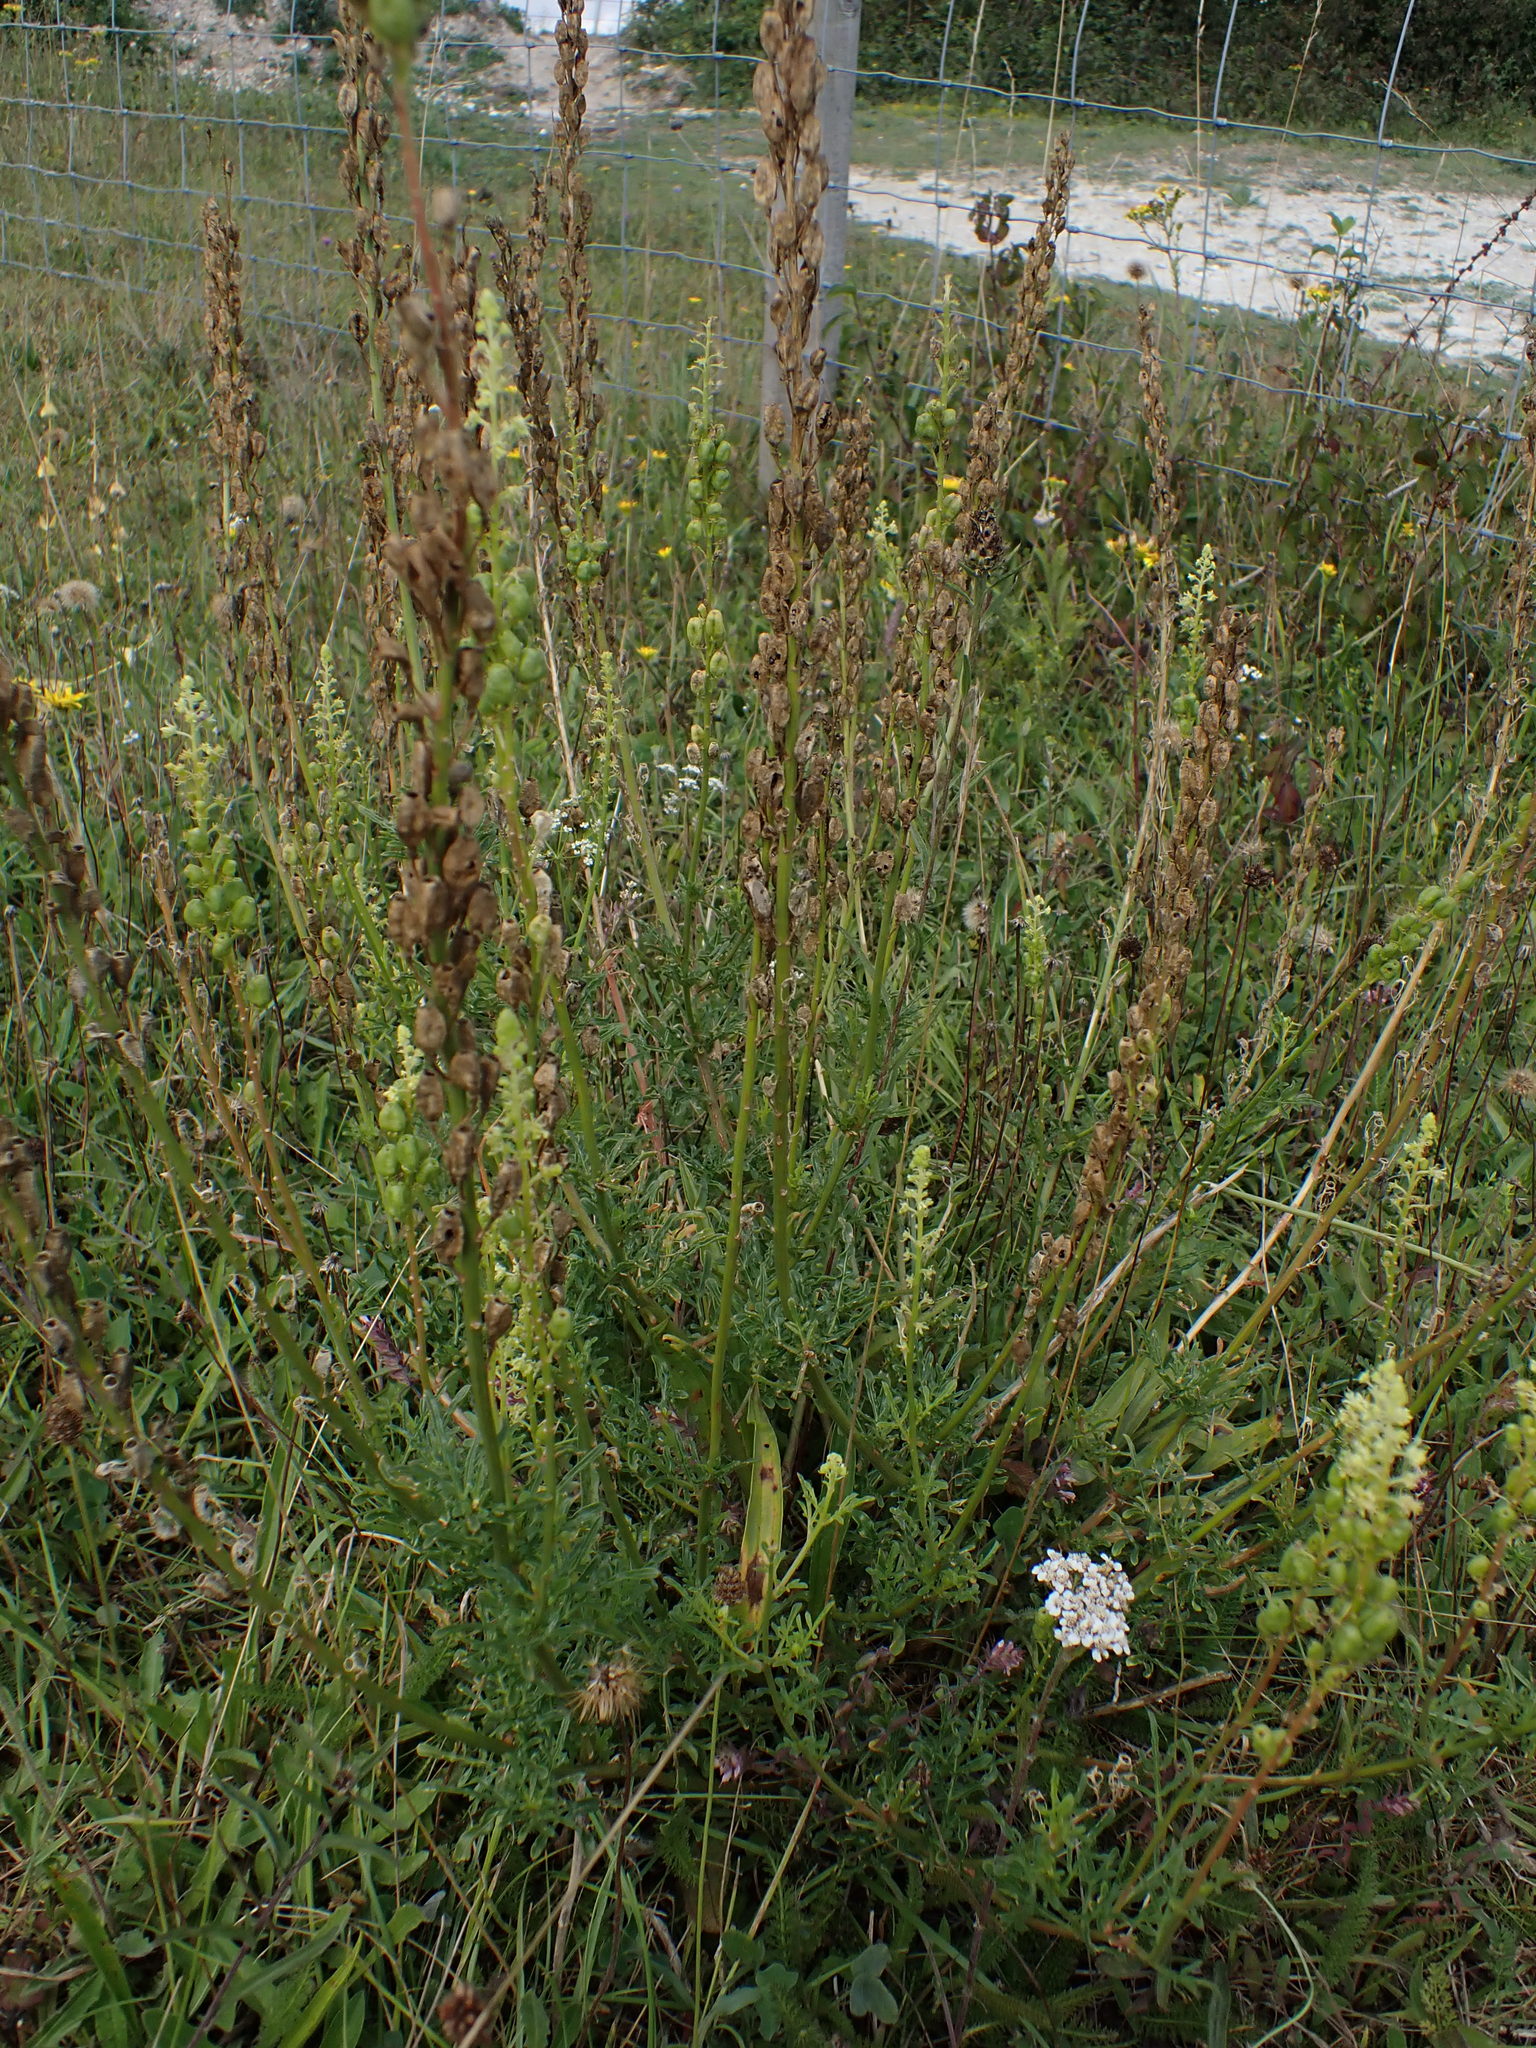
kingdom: Plantae
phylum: Tracheophyta
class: Magnoliopsida
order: Brassicales
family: Resedaceae
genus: Reseda
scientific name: Reseda lutea
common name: Wild mignonette
